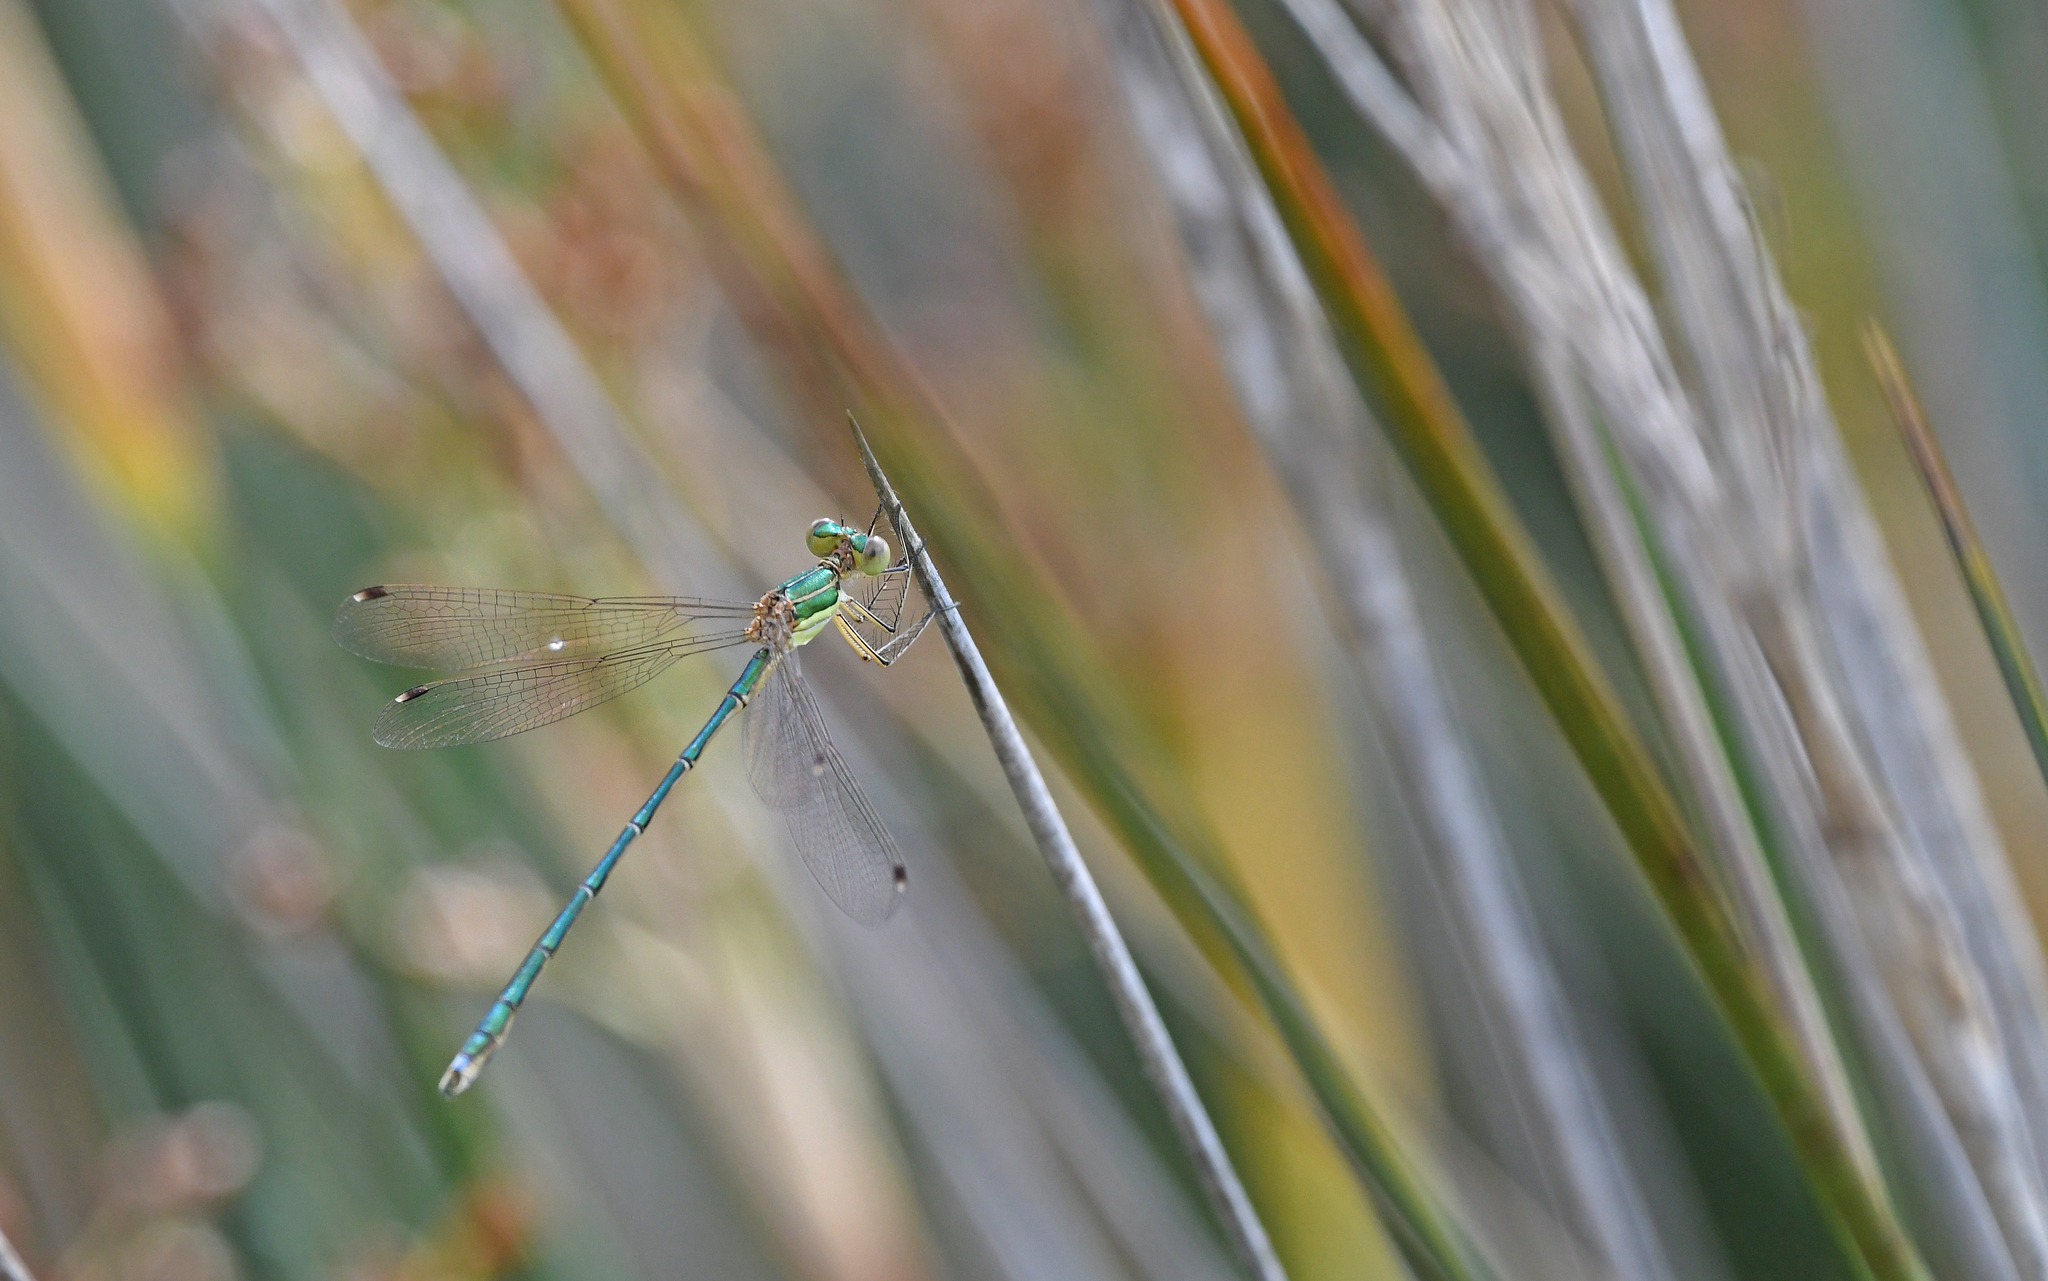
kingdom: Animalia
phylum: Arthropoda
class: Insecta
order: Odonata
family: Lestidae
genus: Lestes
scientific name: Lestes barbarus
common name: Migrant spreadwing
